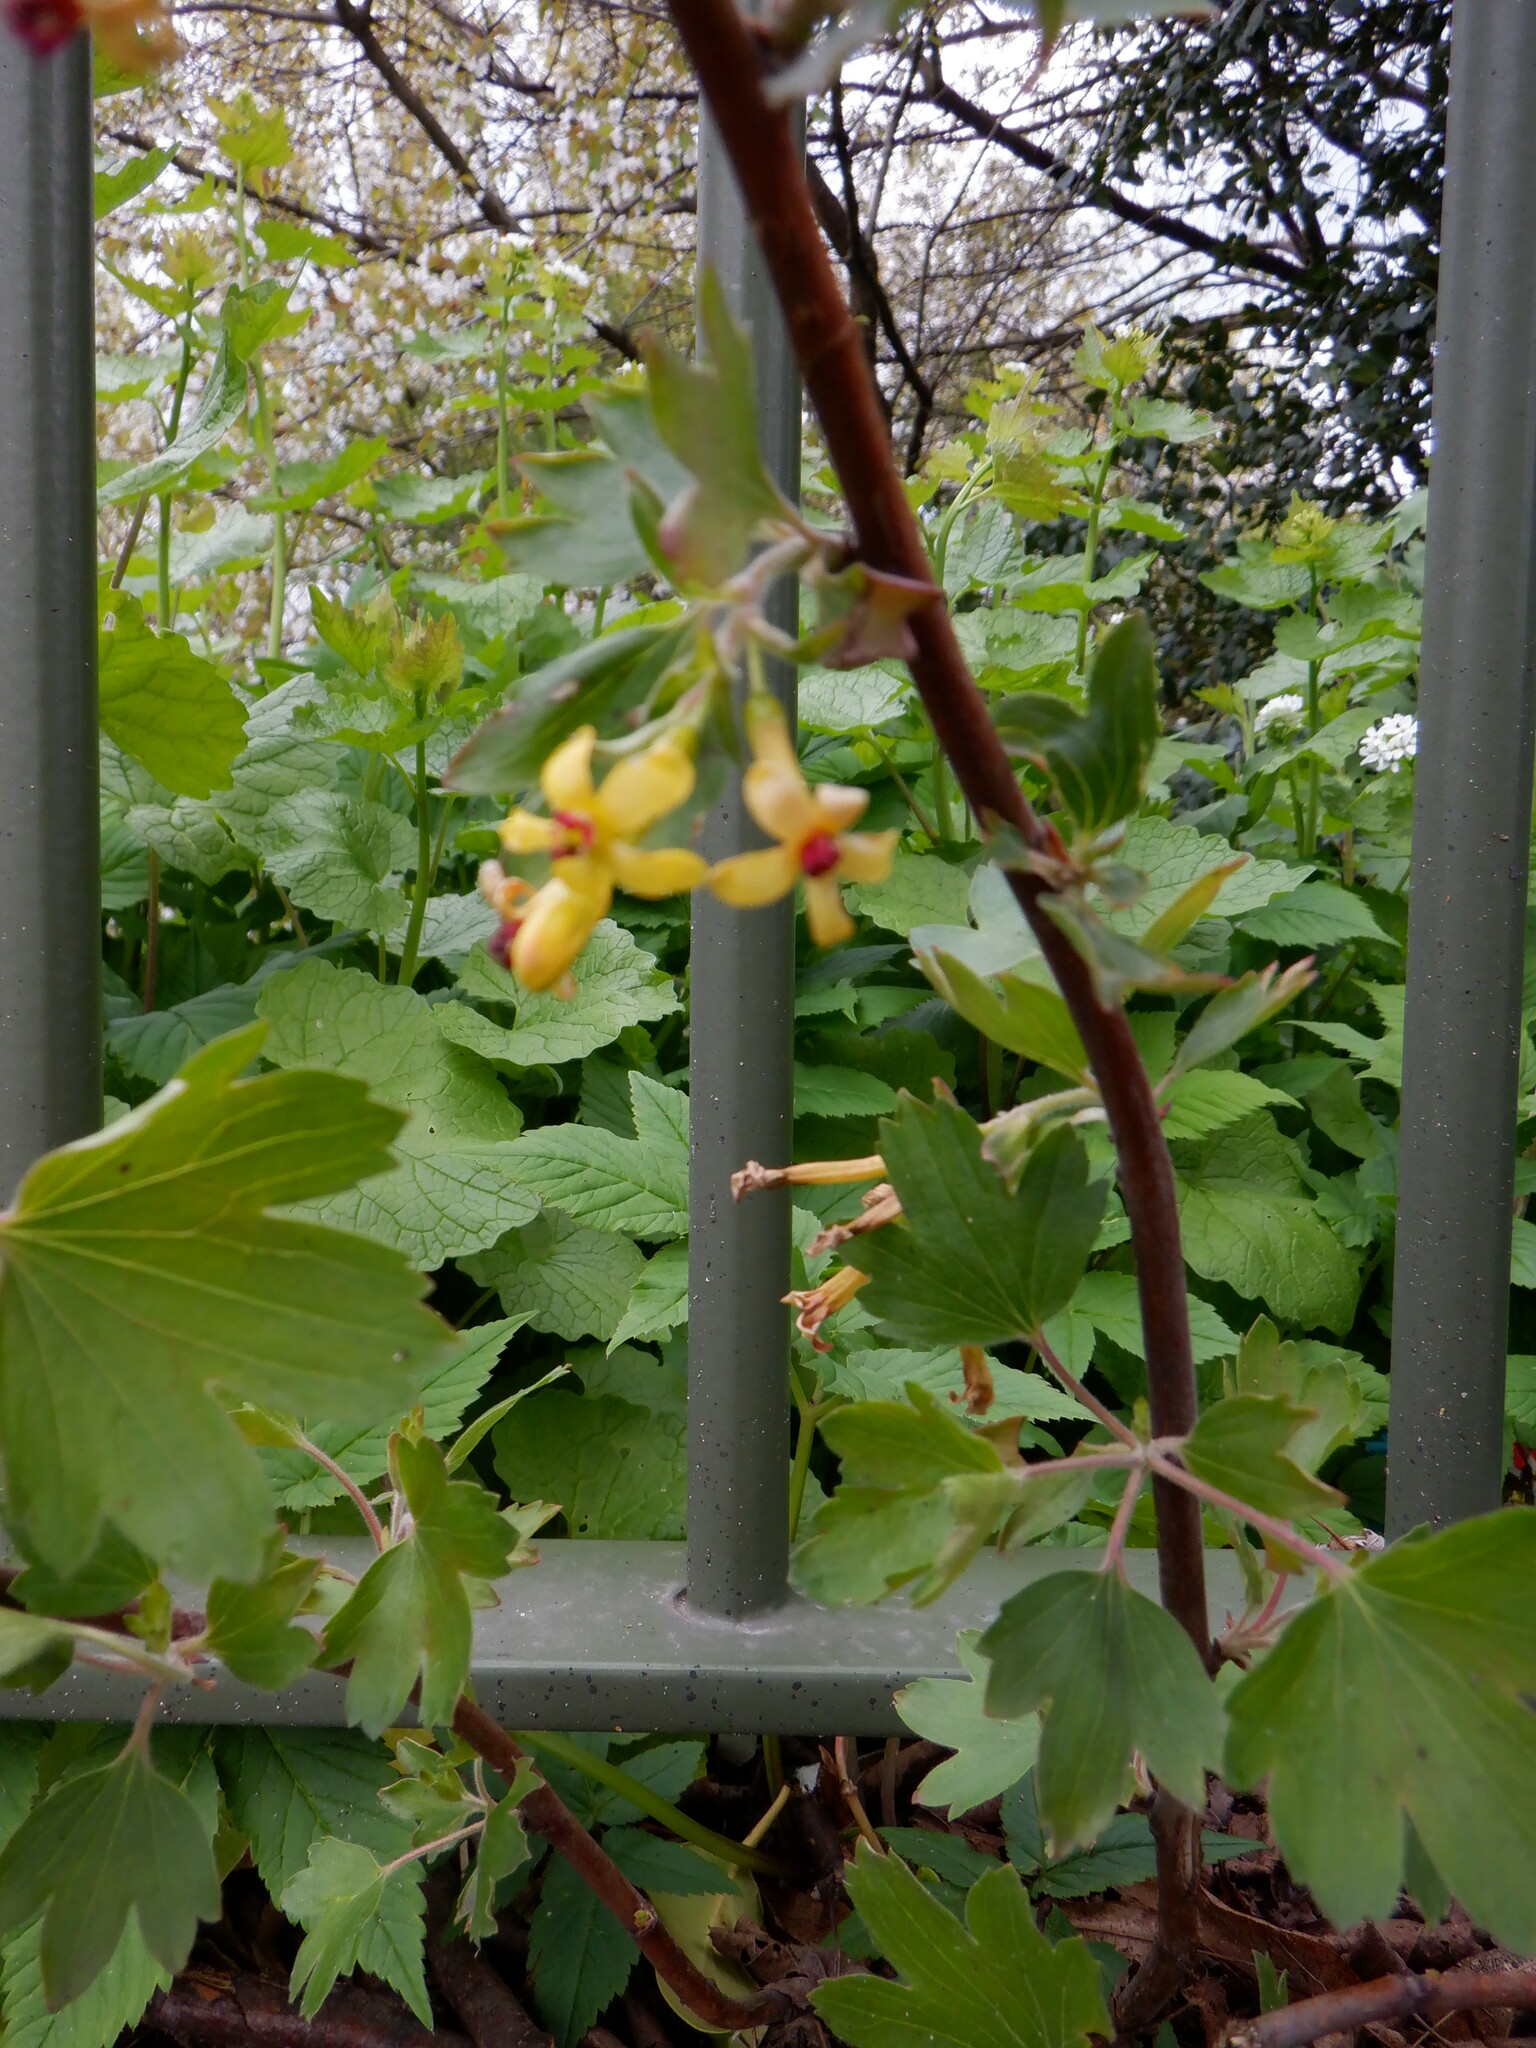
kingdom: Plantae
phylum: Tracheophyta
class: Magnoliopsida
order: Saxifragales
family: Grossulariaceae
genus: Ribes
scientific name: Ribes aureum
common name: Golden currant
